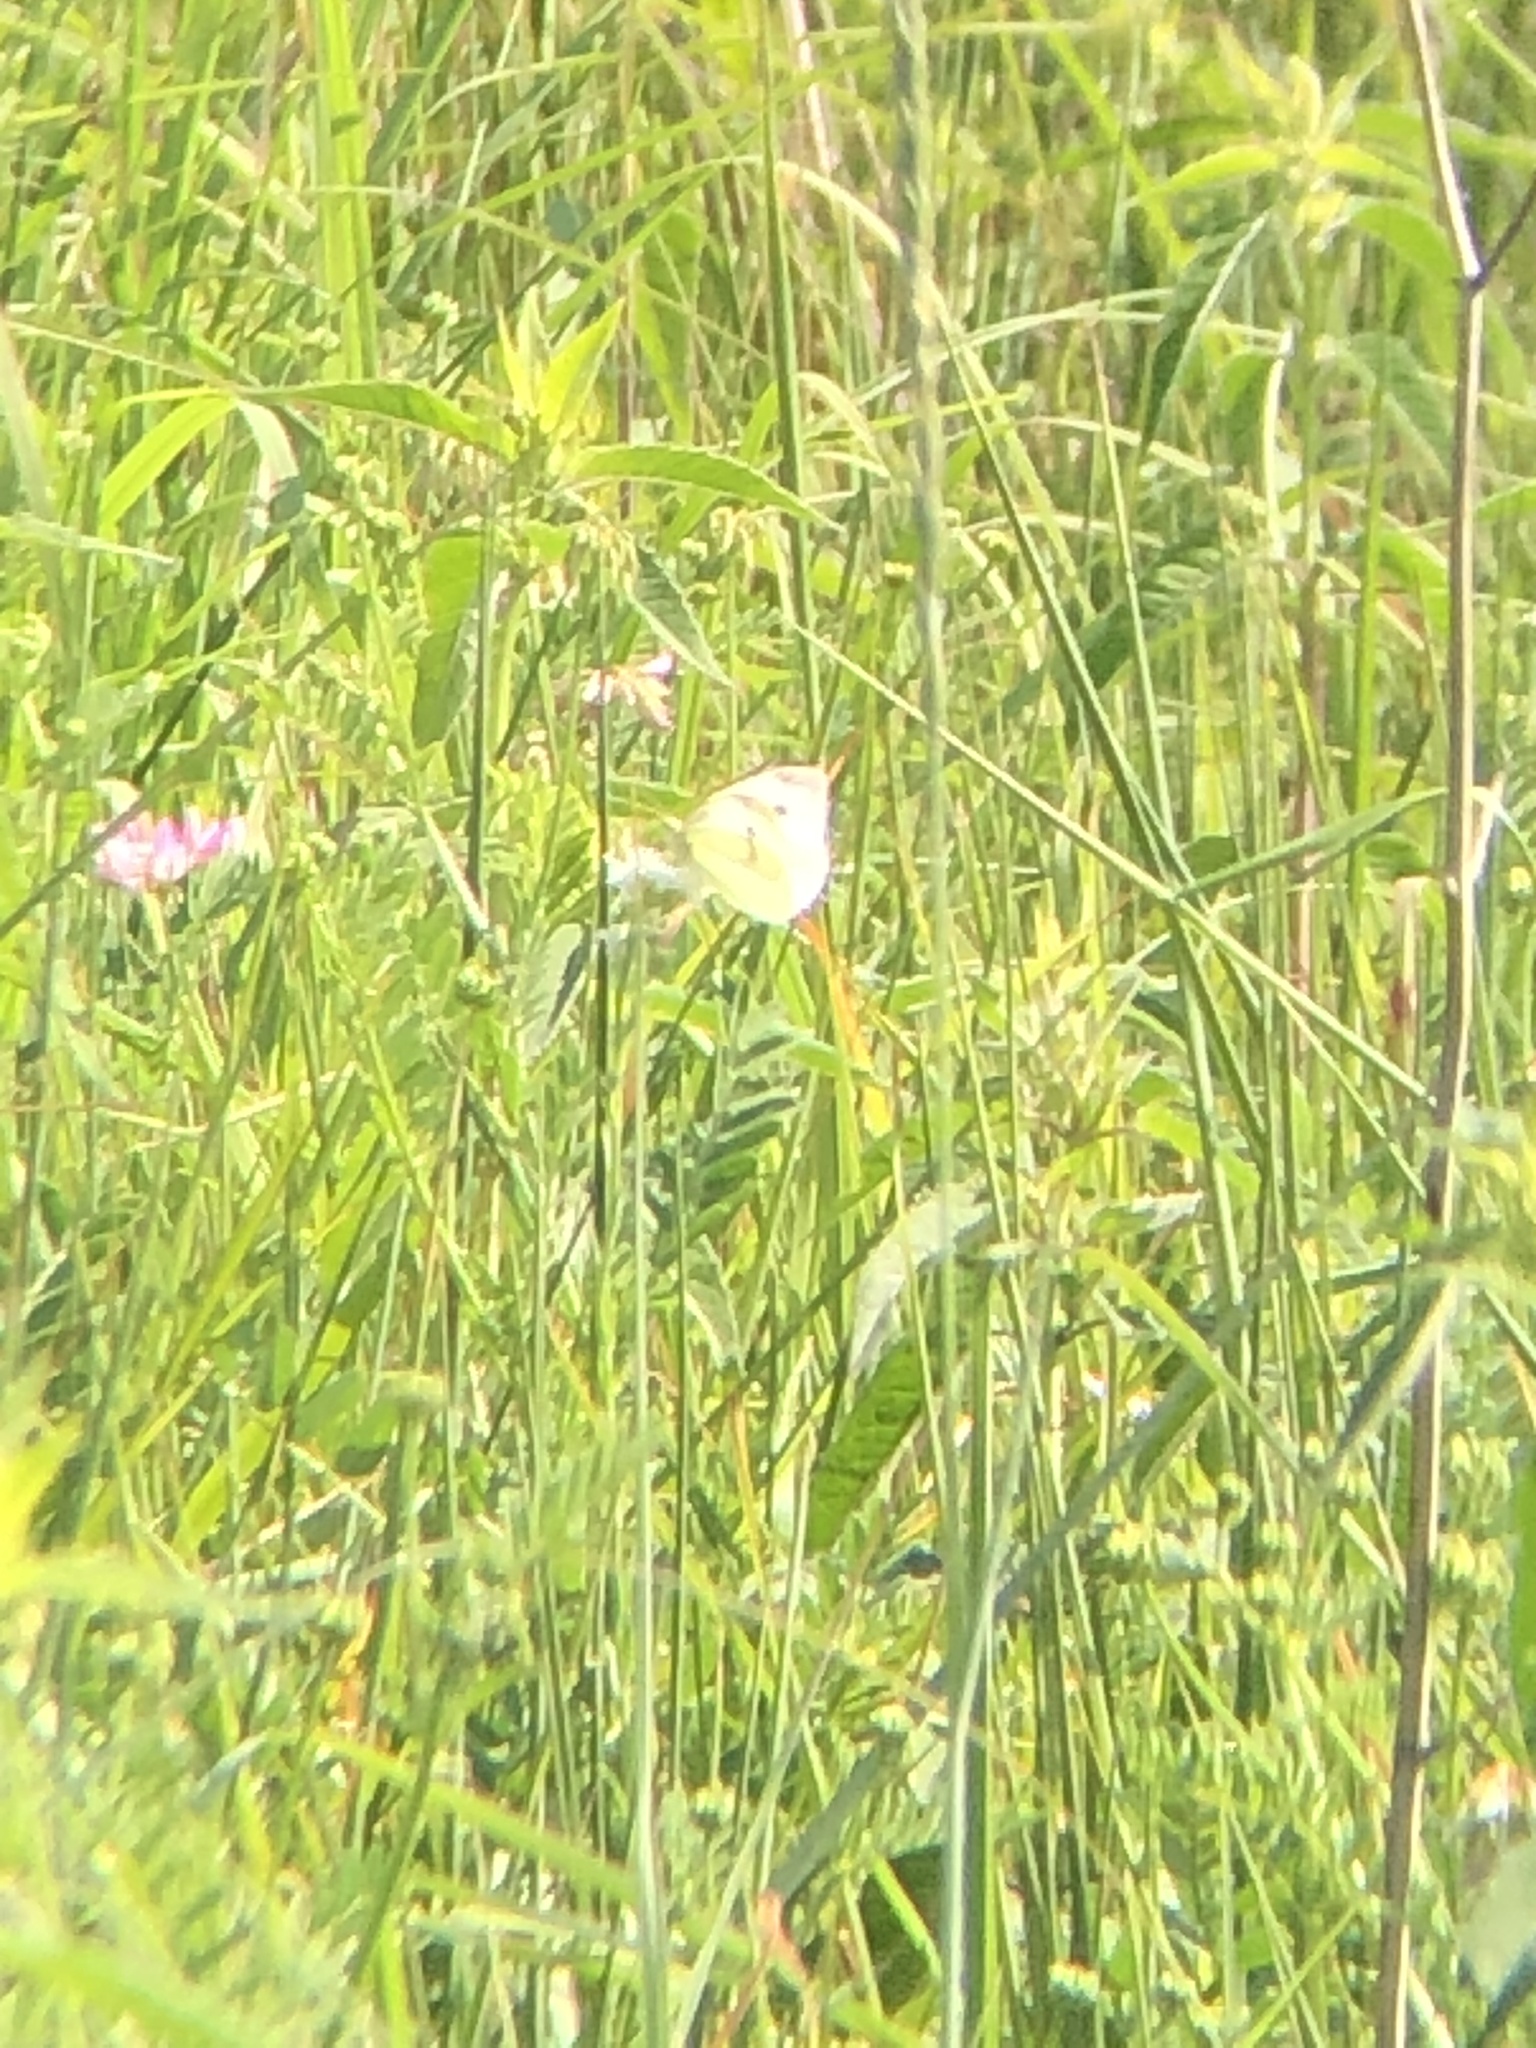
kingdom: Animalia
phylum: Arthropoda
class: Insecta
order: Lepidoptera
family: Pieridae
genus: Pieris
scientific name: Pieris rapae
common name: Small white
